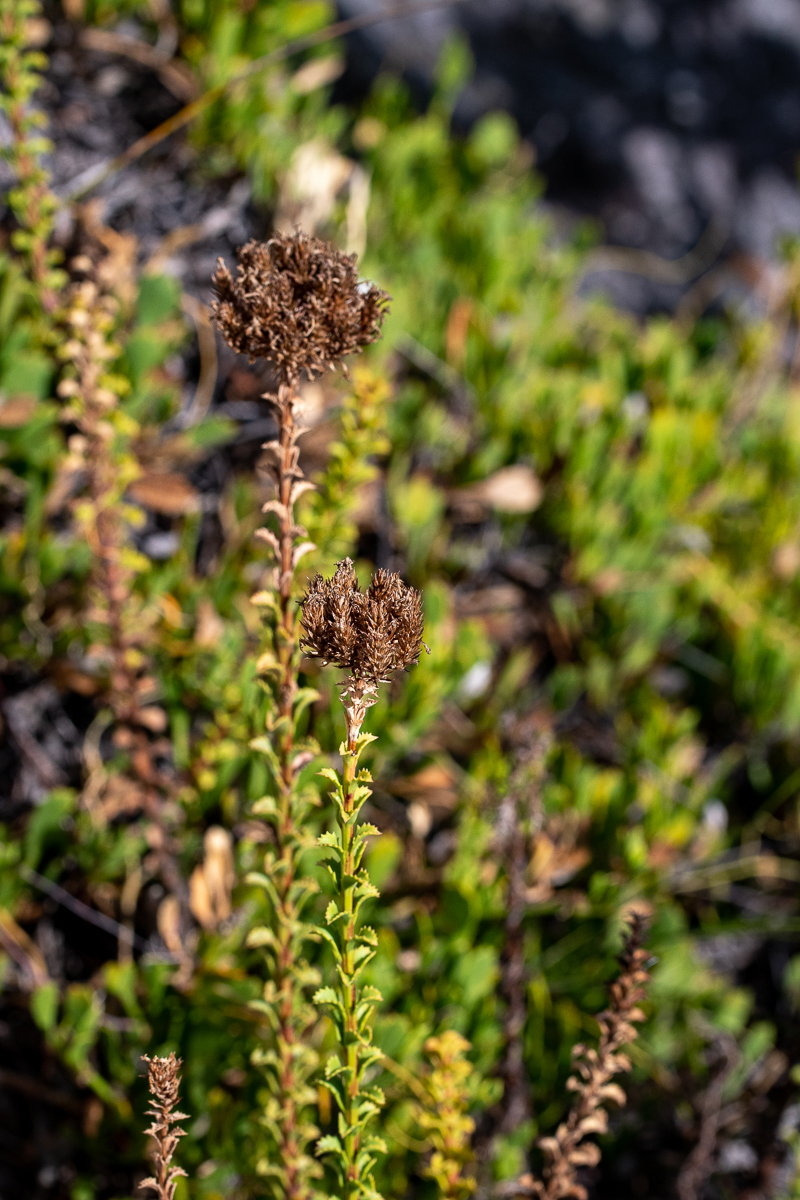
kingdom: Plantae
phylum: Tracheophyta
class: Magnoliopsida
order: Lamiales
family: Scrophulariaceae
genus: Pseudoselago
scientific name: Pseudoselago serrata
